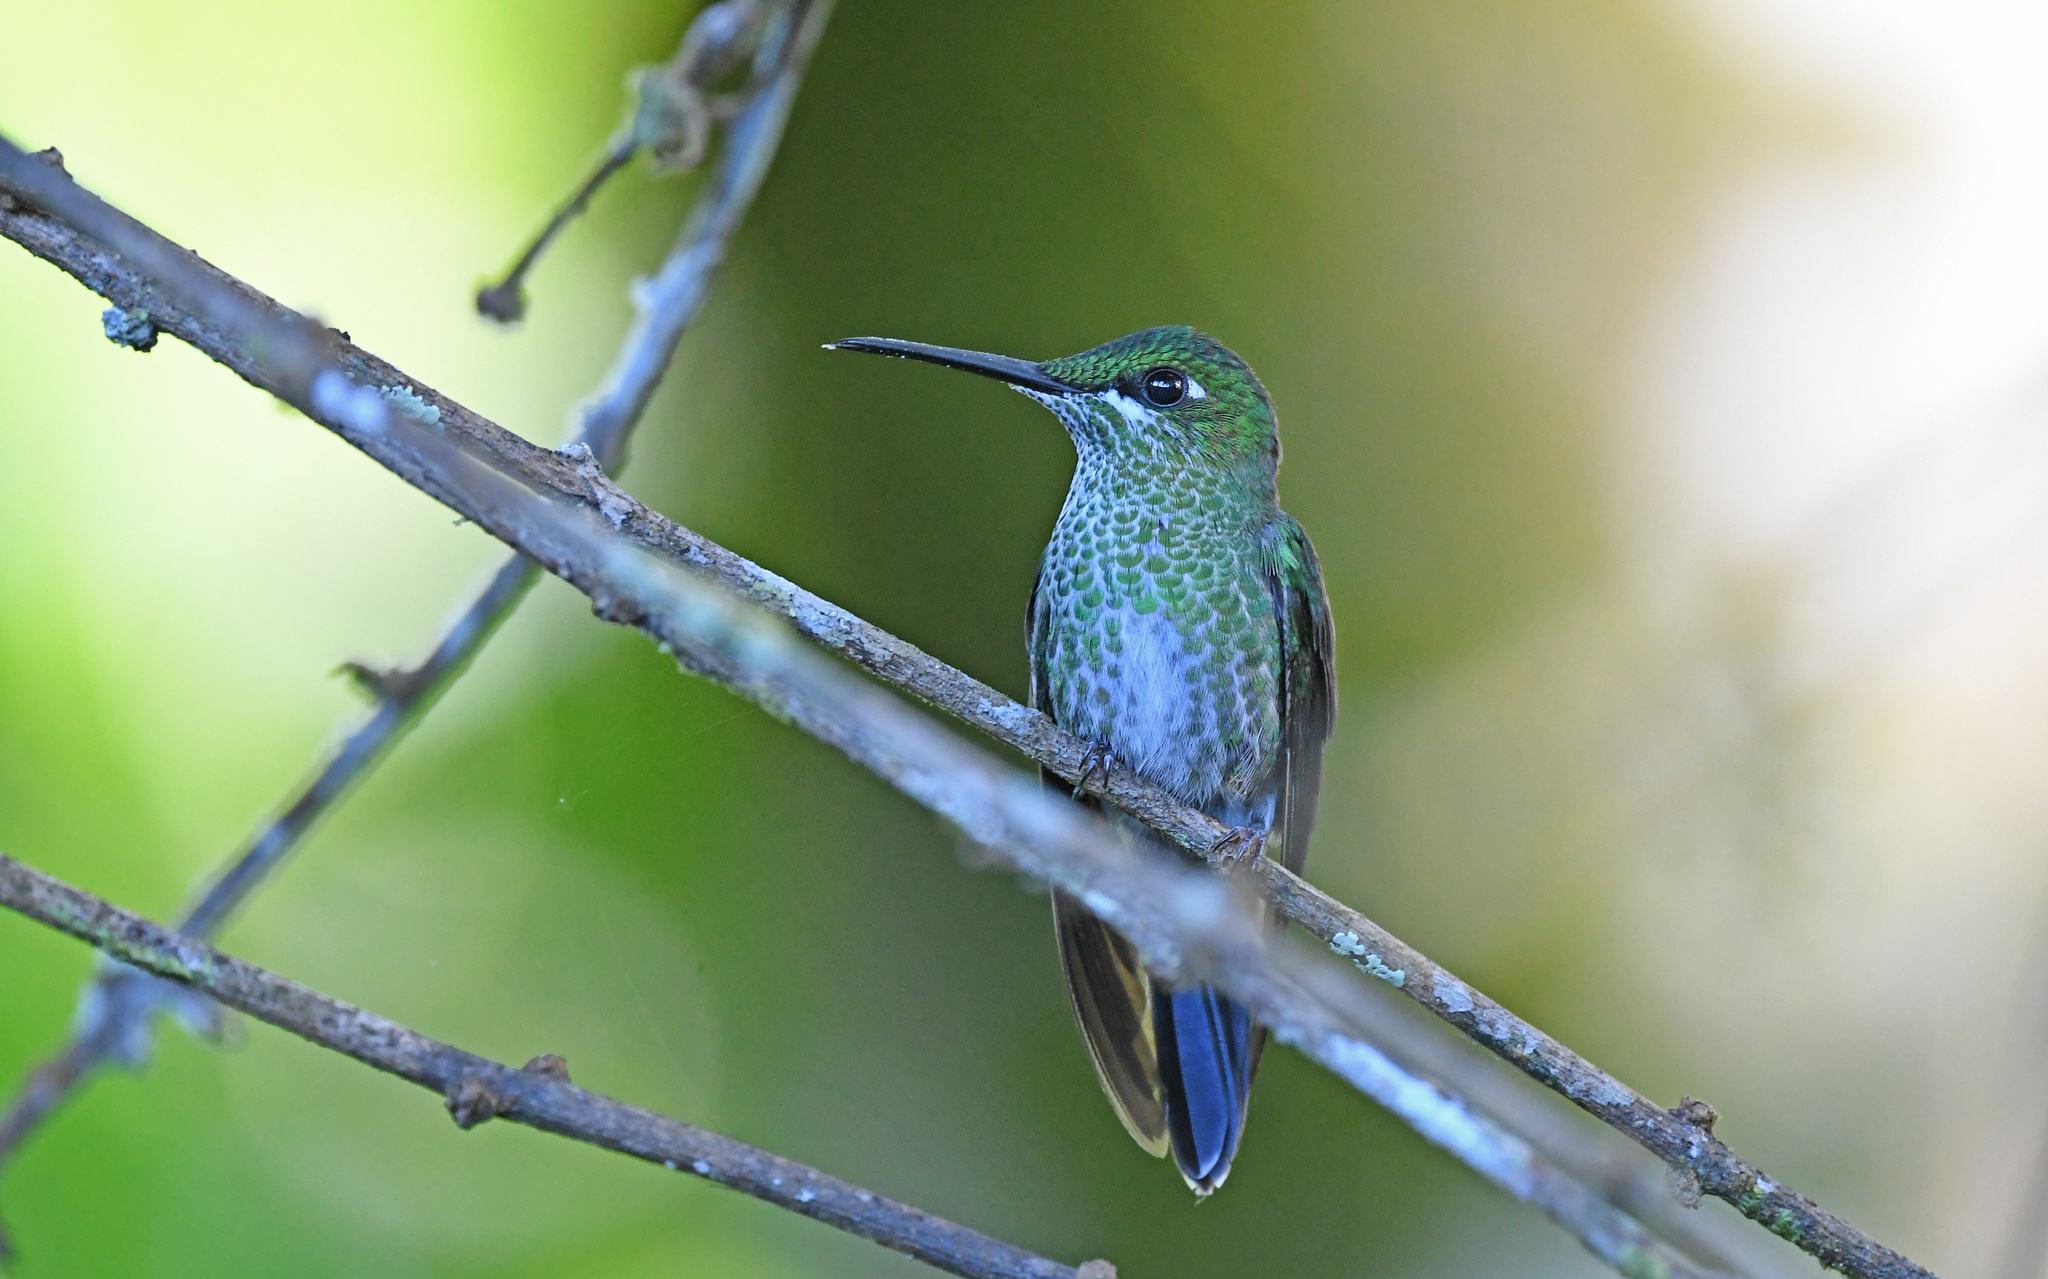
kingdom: Animalia
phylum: Chordata
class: Aves
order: Apodiformes
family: Trochilidae
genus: Heliodoxa
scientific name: Heliodoxa jacula
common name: Green-crowned brilliant
